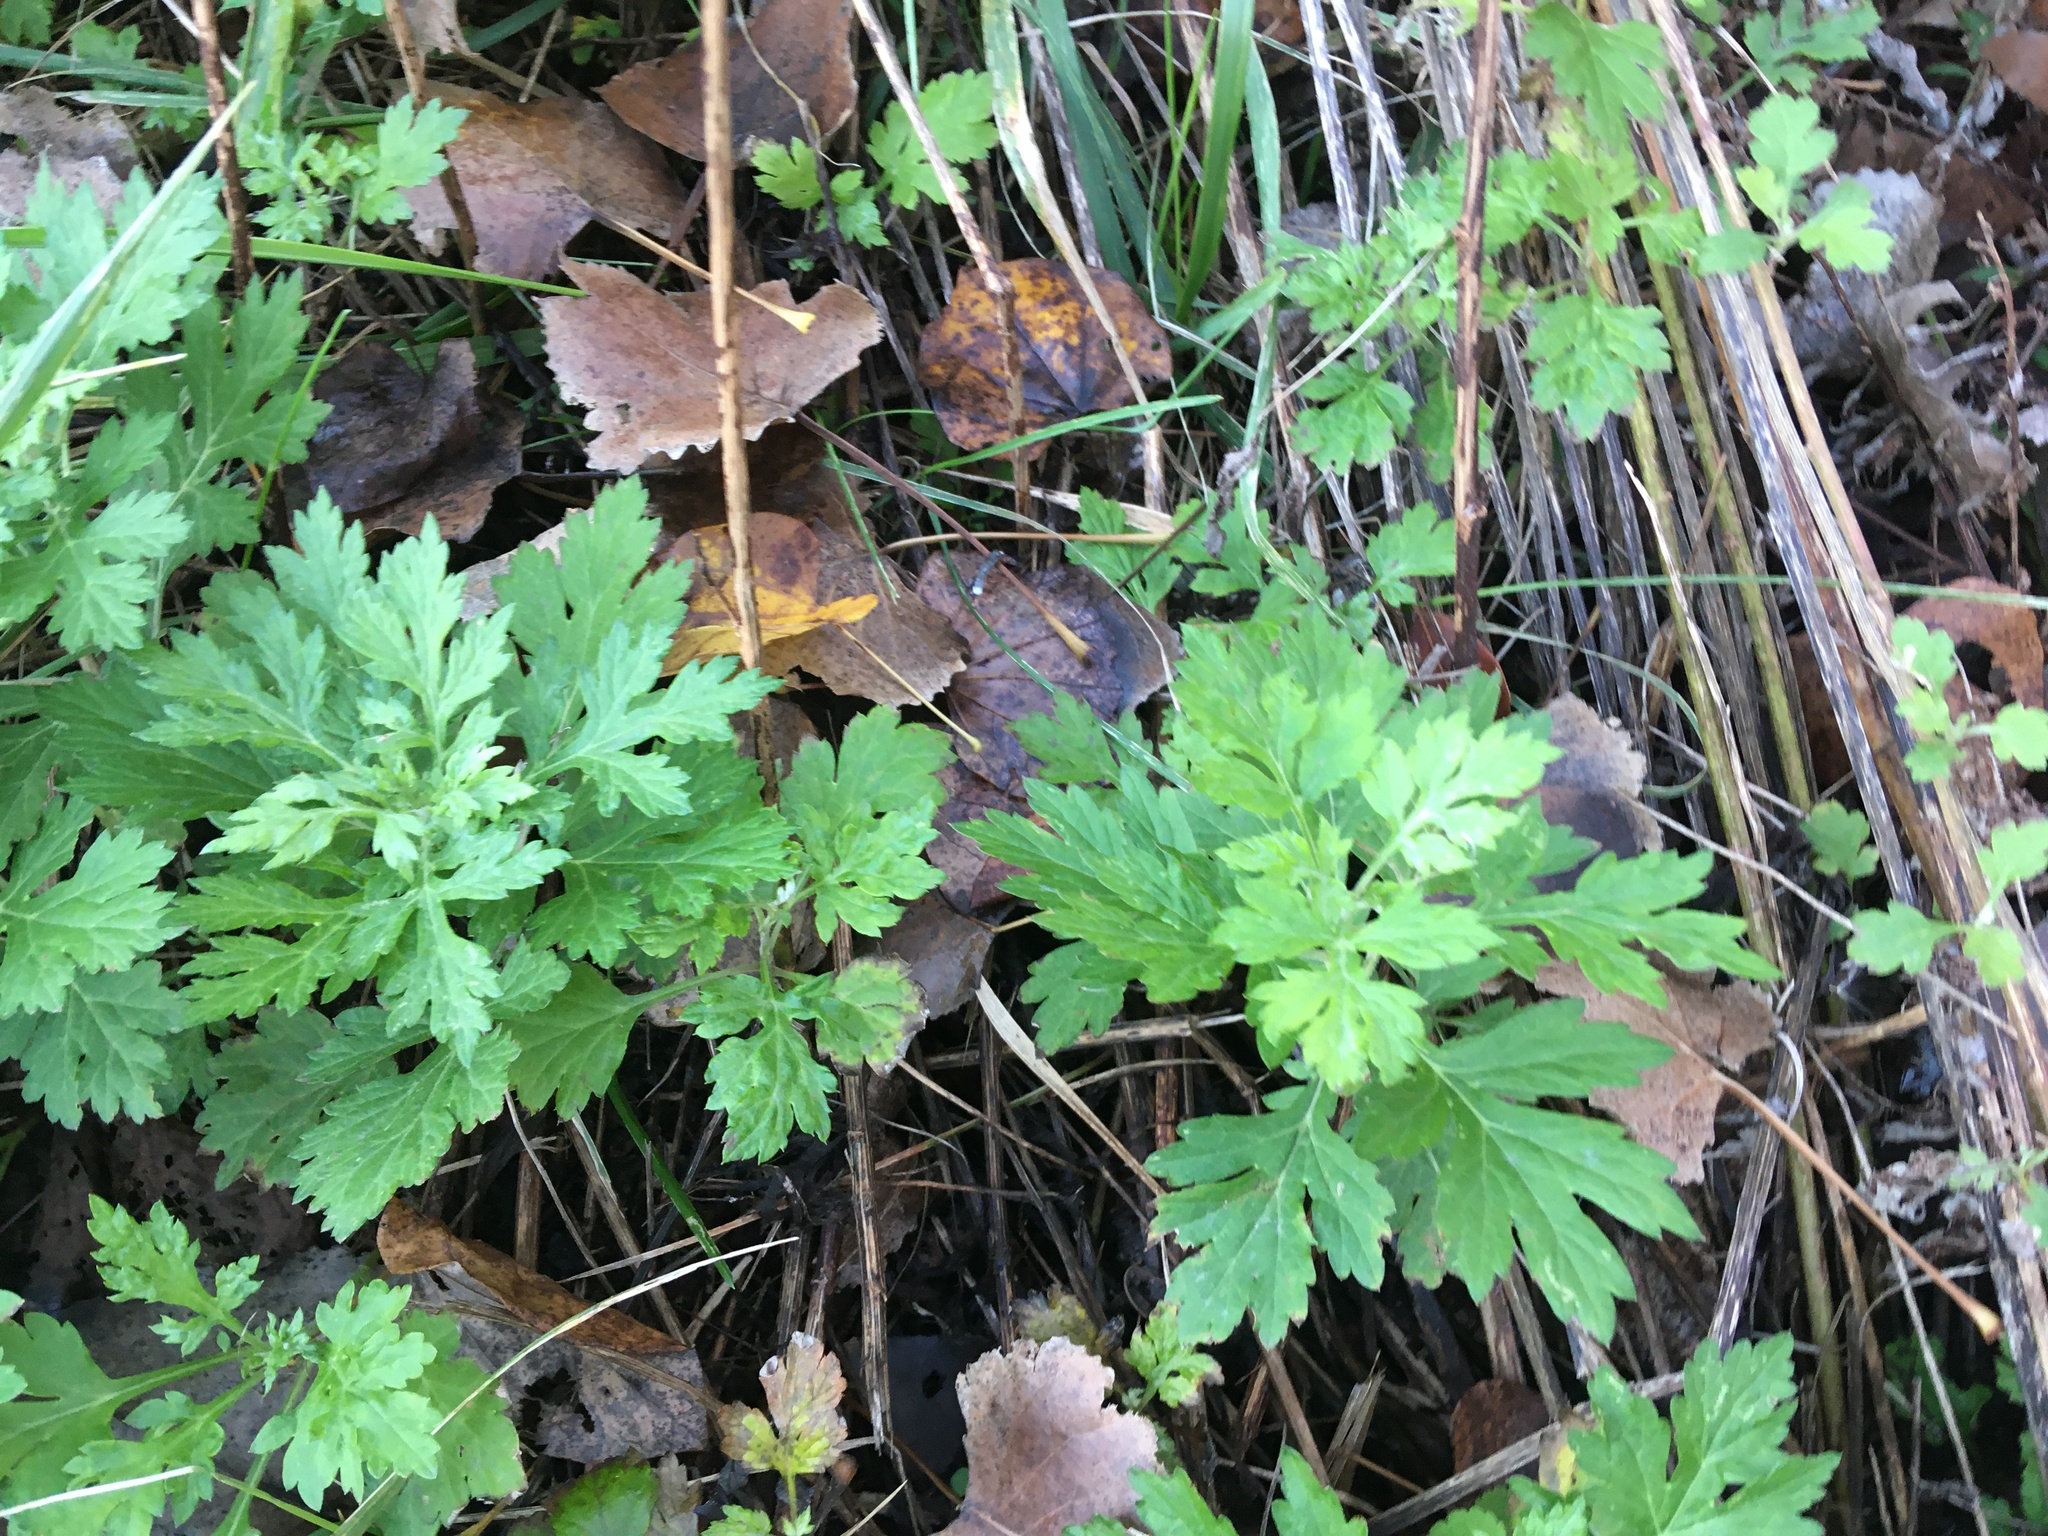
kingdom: Plantae
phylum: Tracheophyta
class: Magnoliopsida
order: Asterales
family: Asteraceae
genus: Artemisia
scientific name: Artemisia vulgaris
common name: Mugwort
